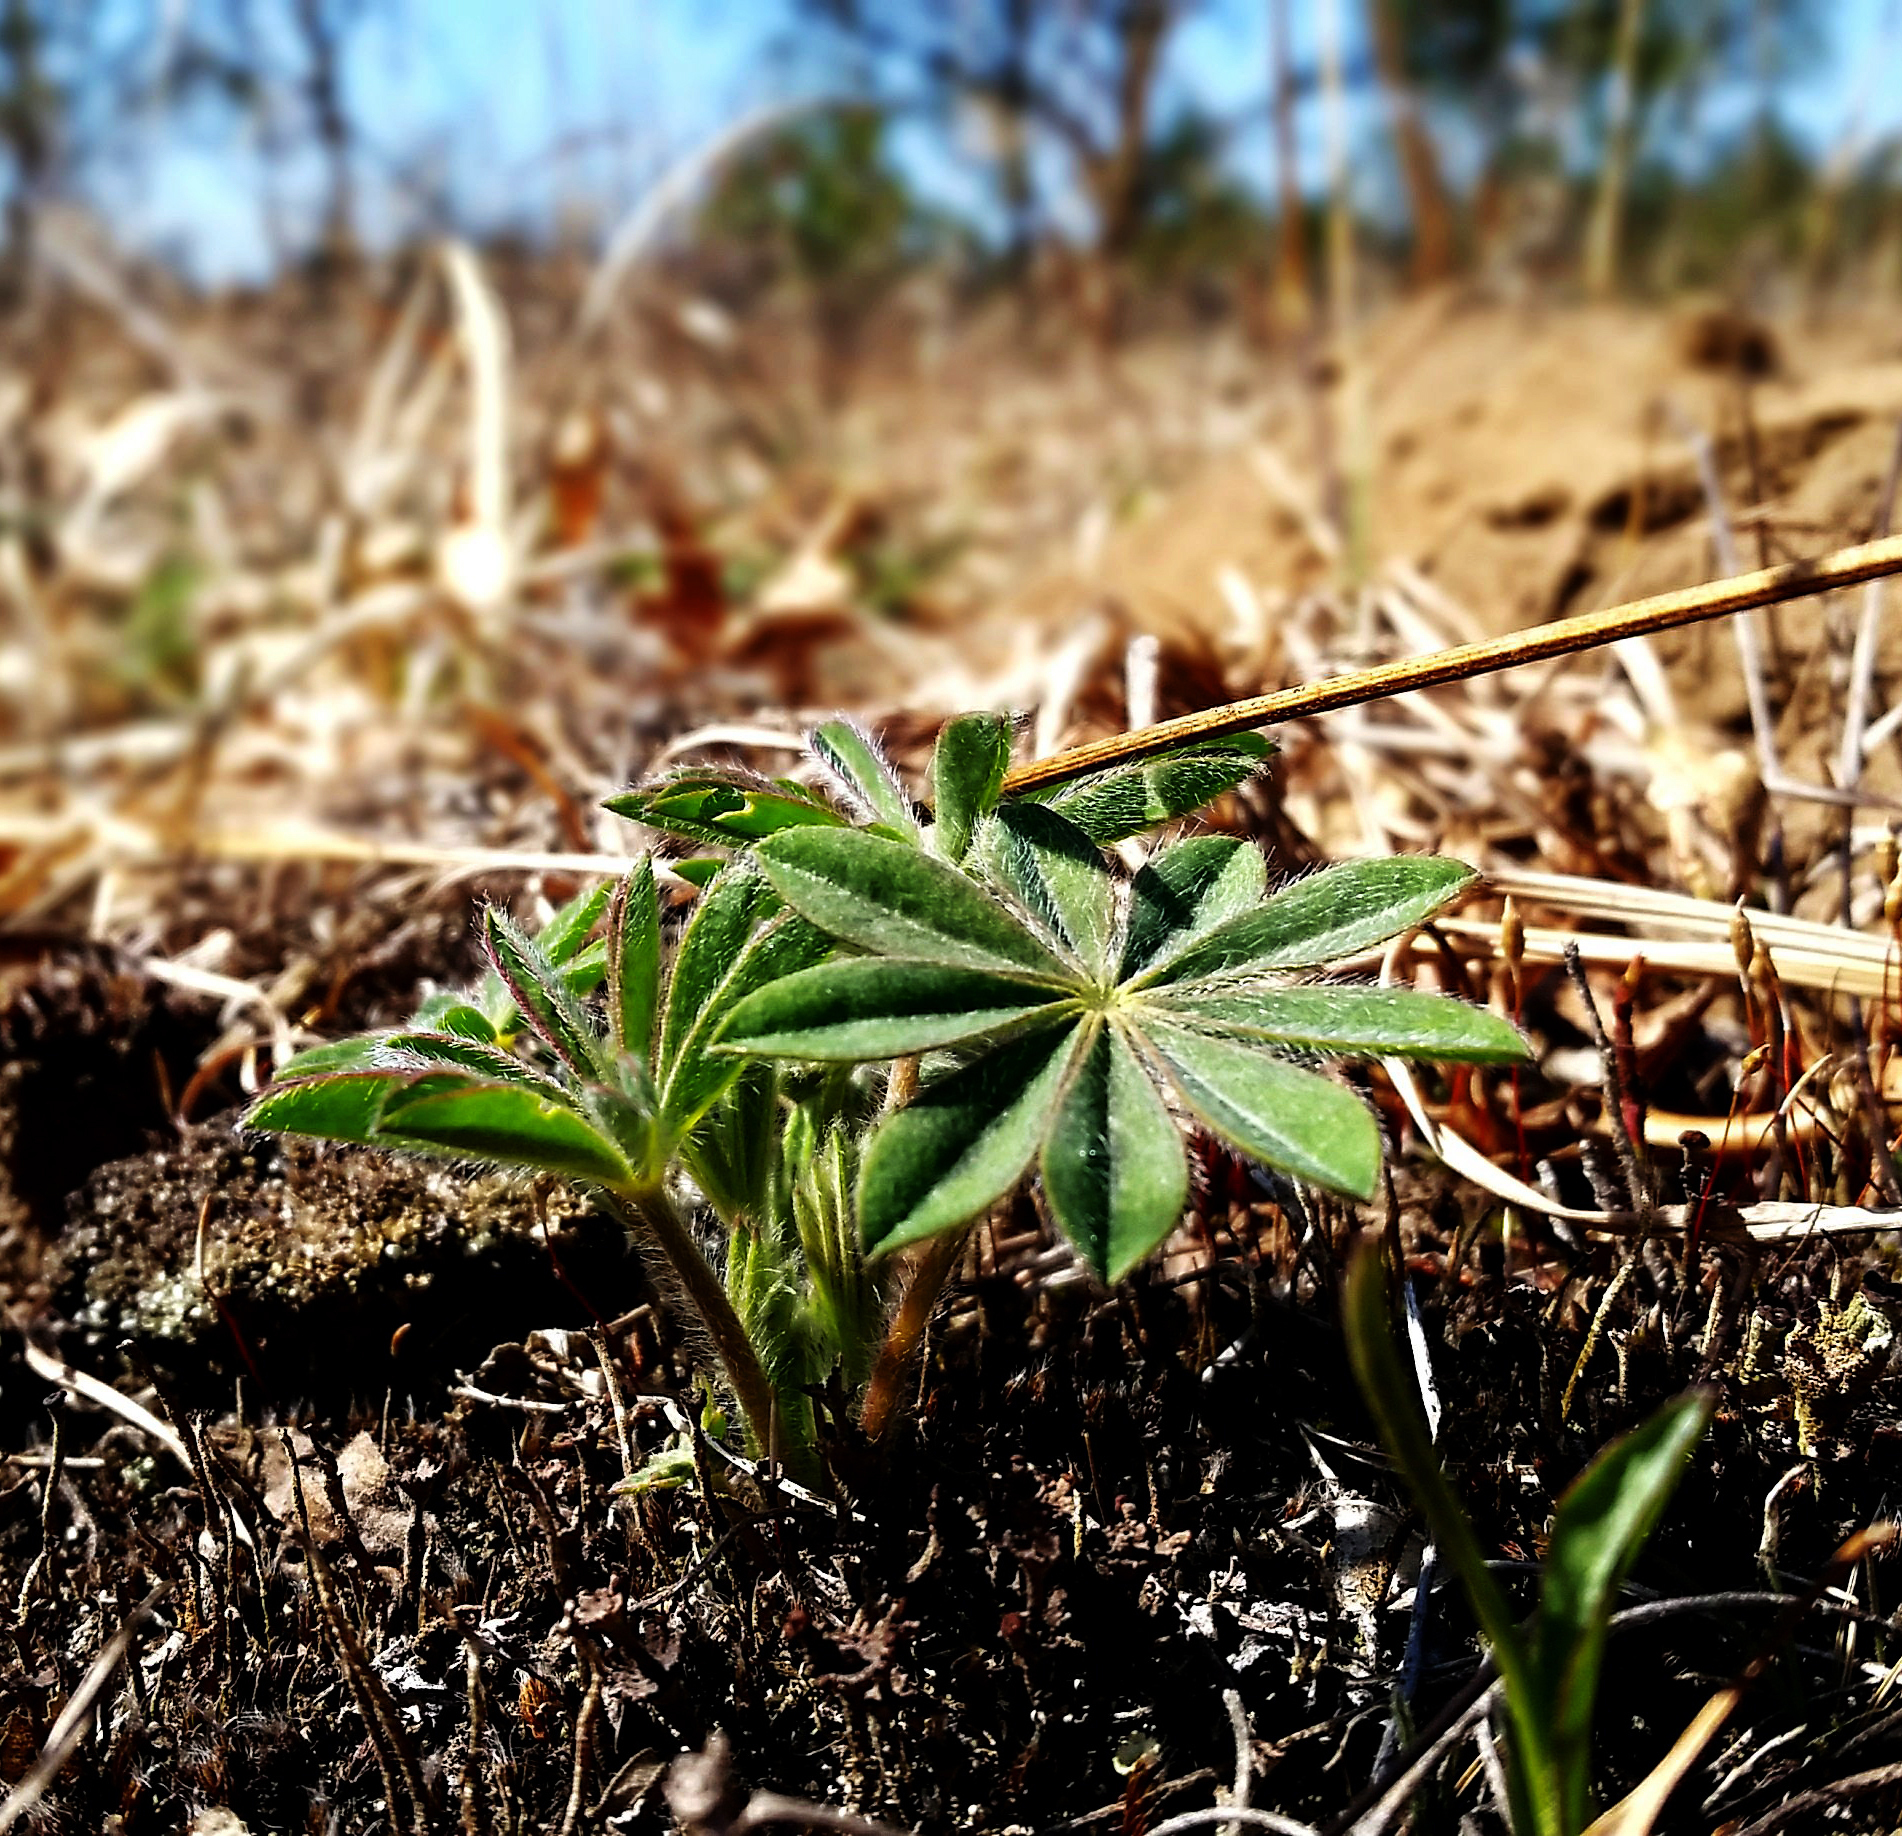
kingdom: Plantae
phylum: Tracheophyta
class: Magnoliopsida
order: Fabales
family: Fabaceae
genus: Lupinus
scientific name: Lupinus perennis
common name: Sundial lupine
